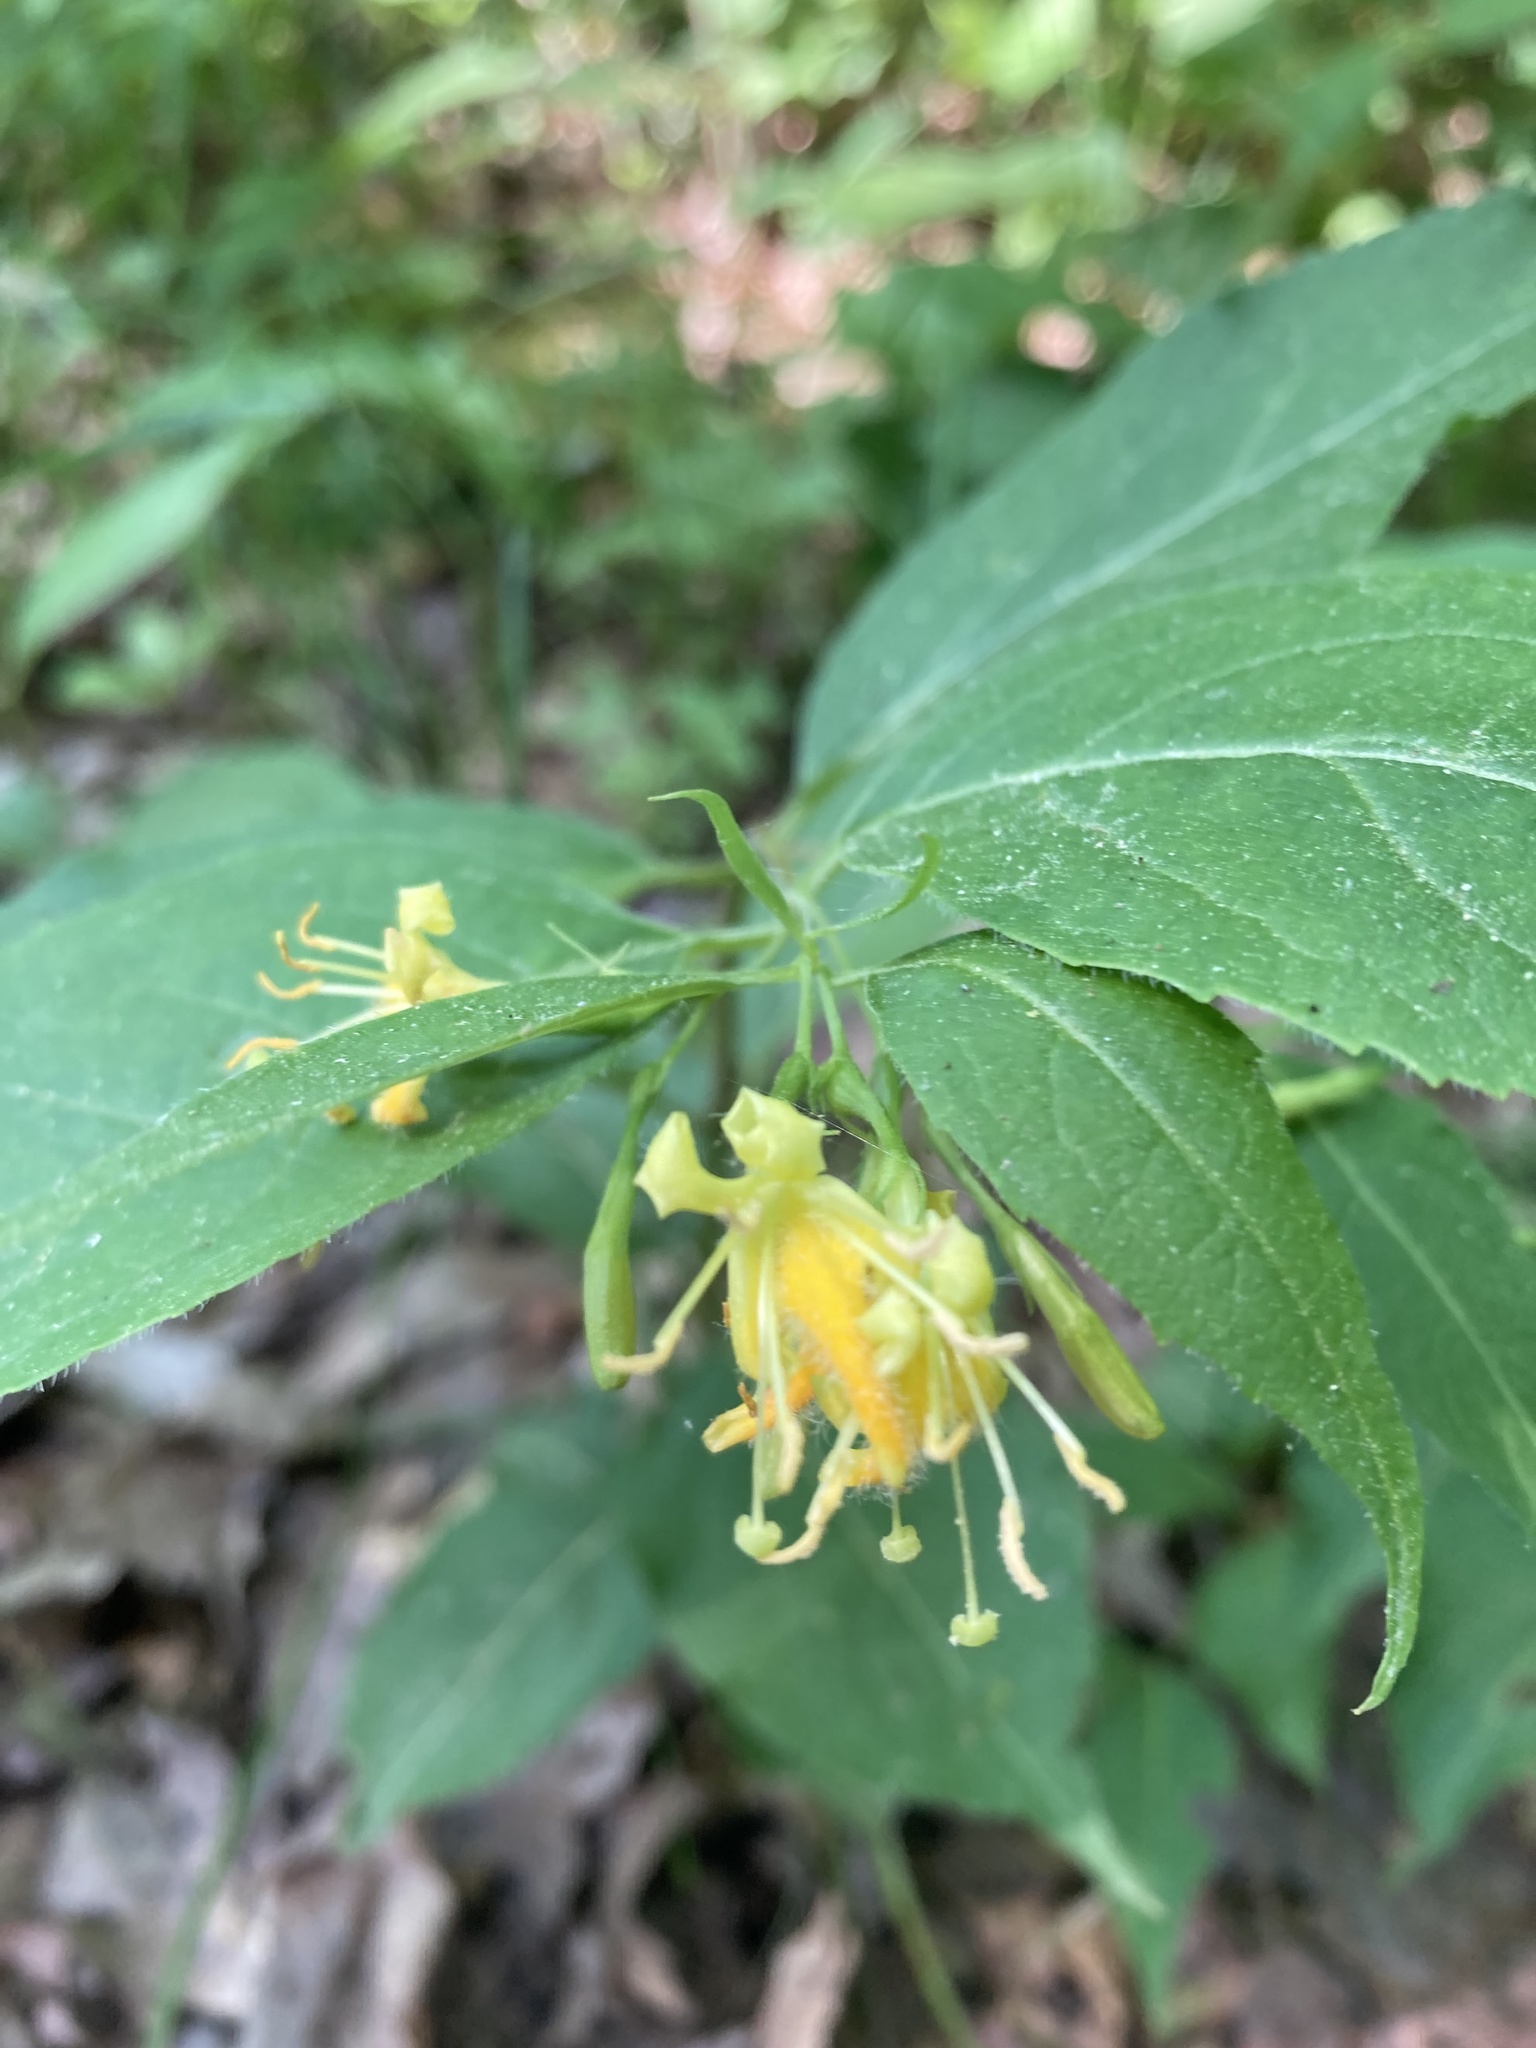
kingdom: Plantae
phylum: Tracheophyta
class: Magnoliopsida
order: Dipsacales
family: Caprifoliaceae
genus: Diervilla
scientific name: Diervilla lonicera
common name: Bush-honeysuckle
